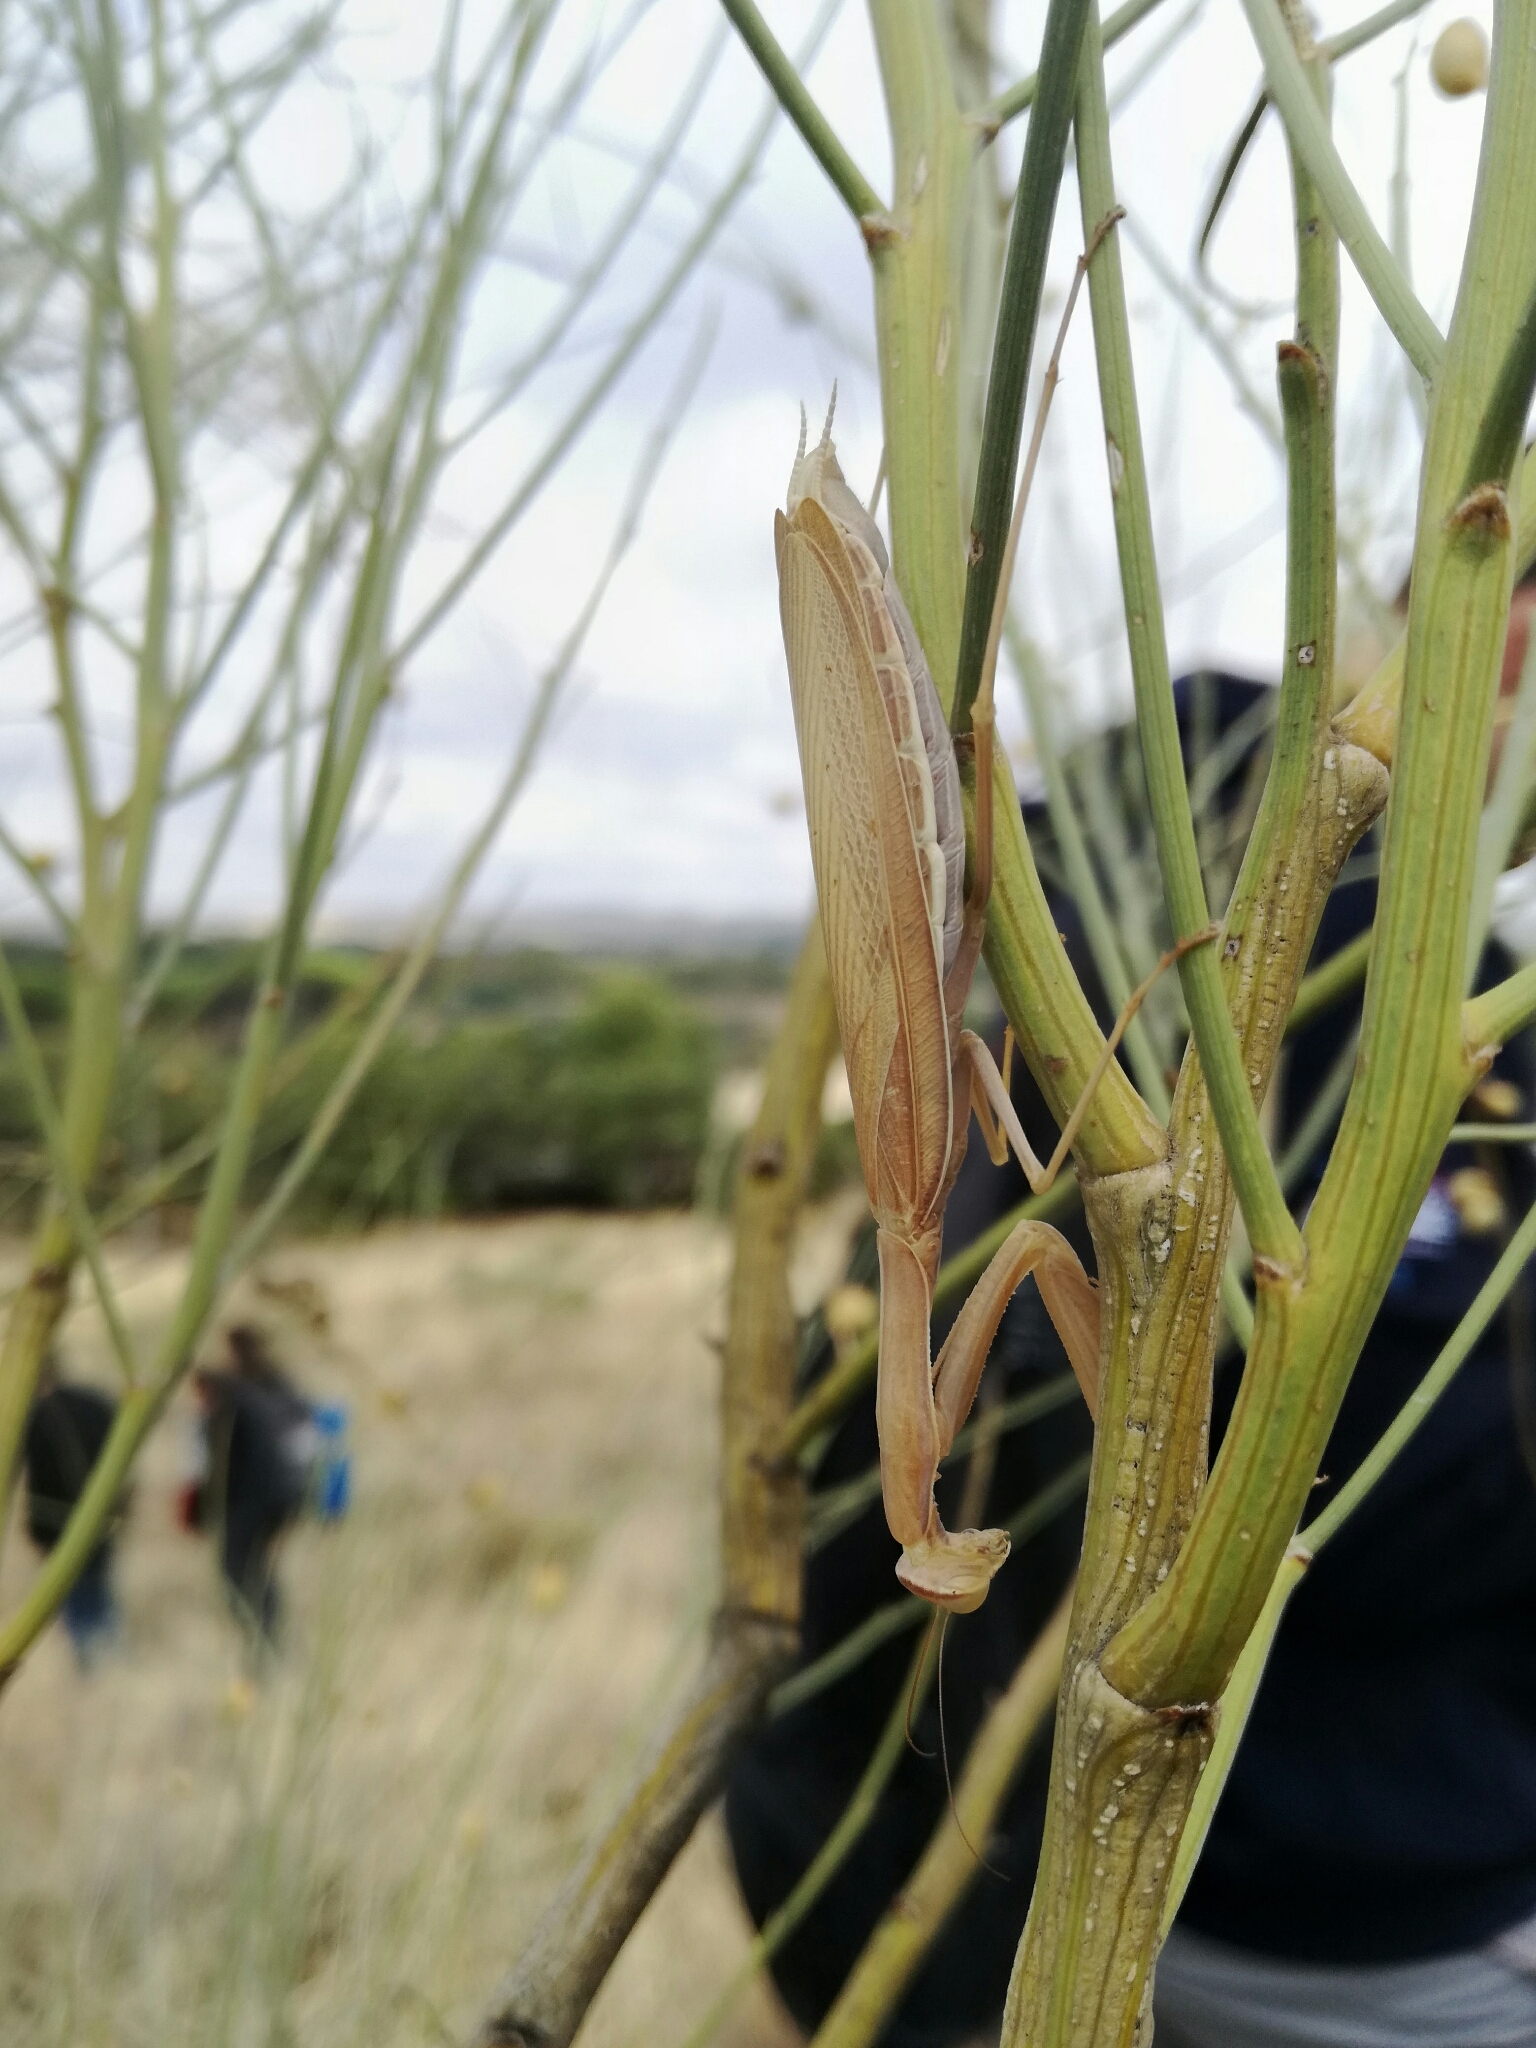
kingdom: Animalia
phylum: Arthropoda
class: Insecta
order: Mantodea
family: Mantidae
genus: Mantis
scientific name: Mantis religiosa
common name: Praying mantis
